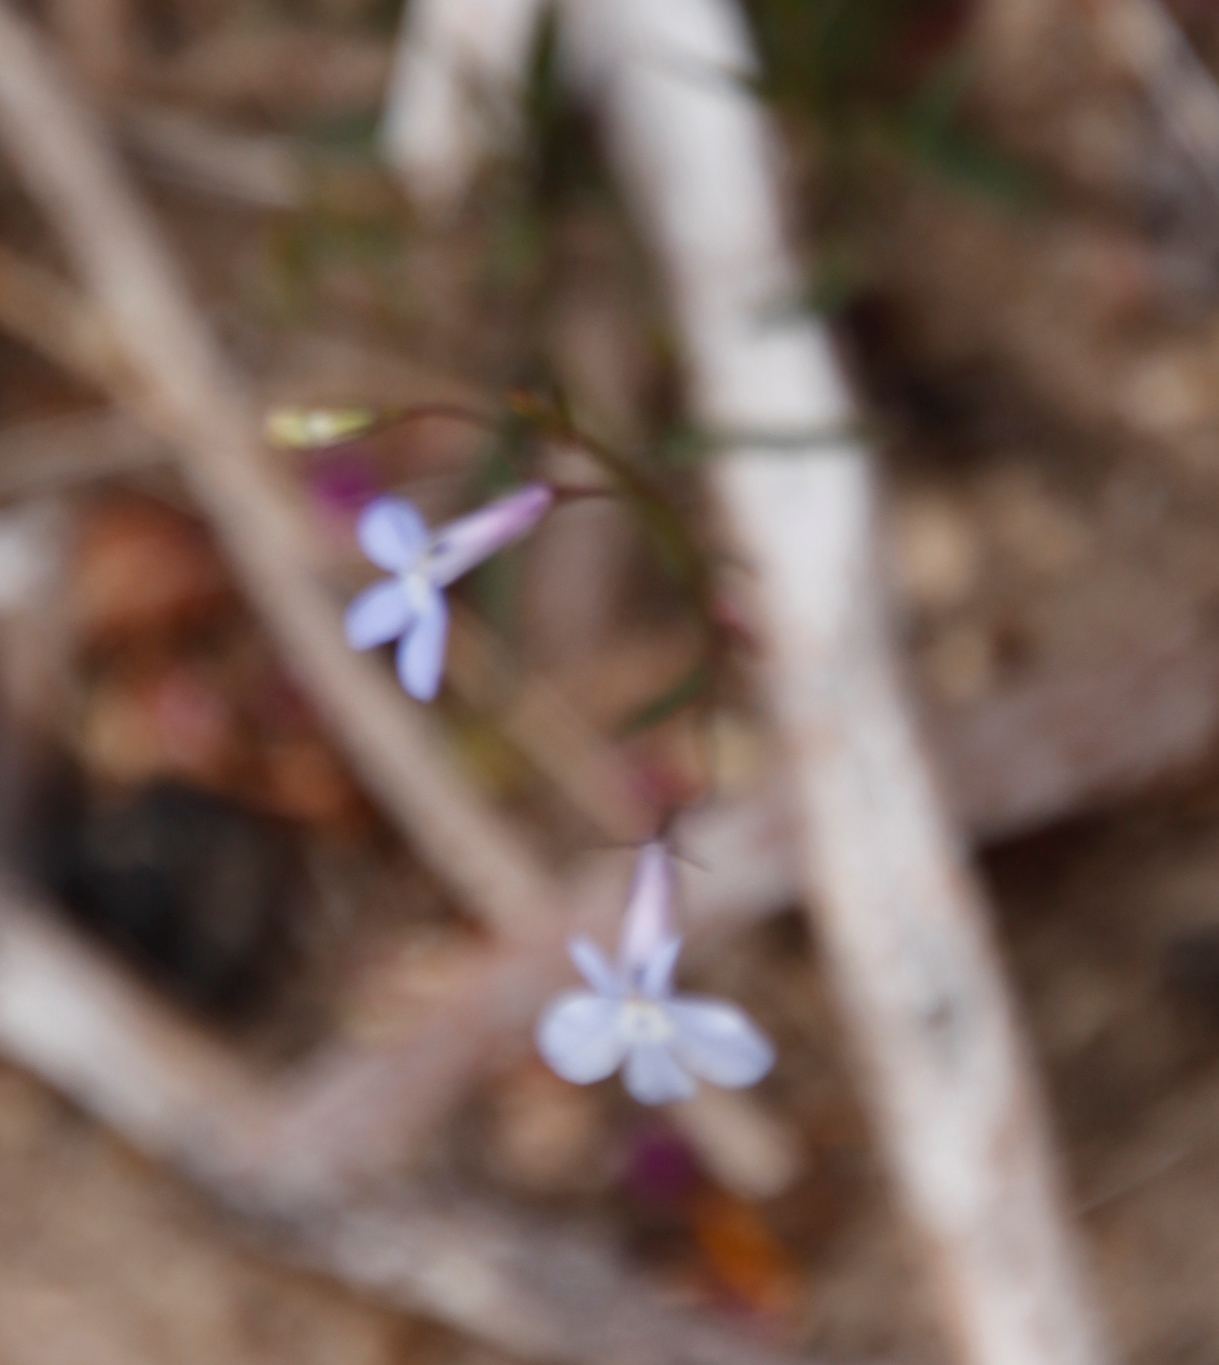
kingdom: Plantae
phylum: Tracheophyta
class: Magnoliopsida
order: Asterales
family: Campanulaceae
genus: Lobelia
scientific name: Lobelia erinus
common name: Edging lobelia
